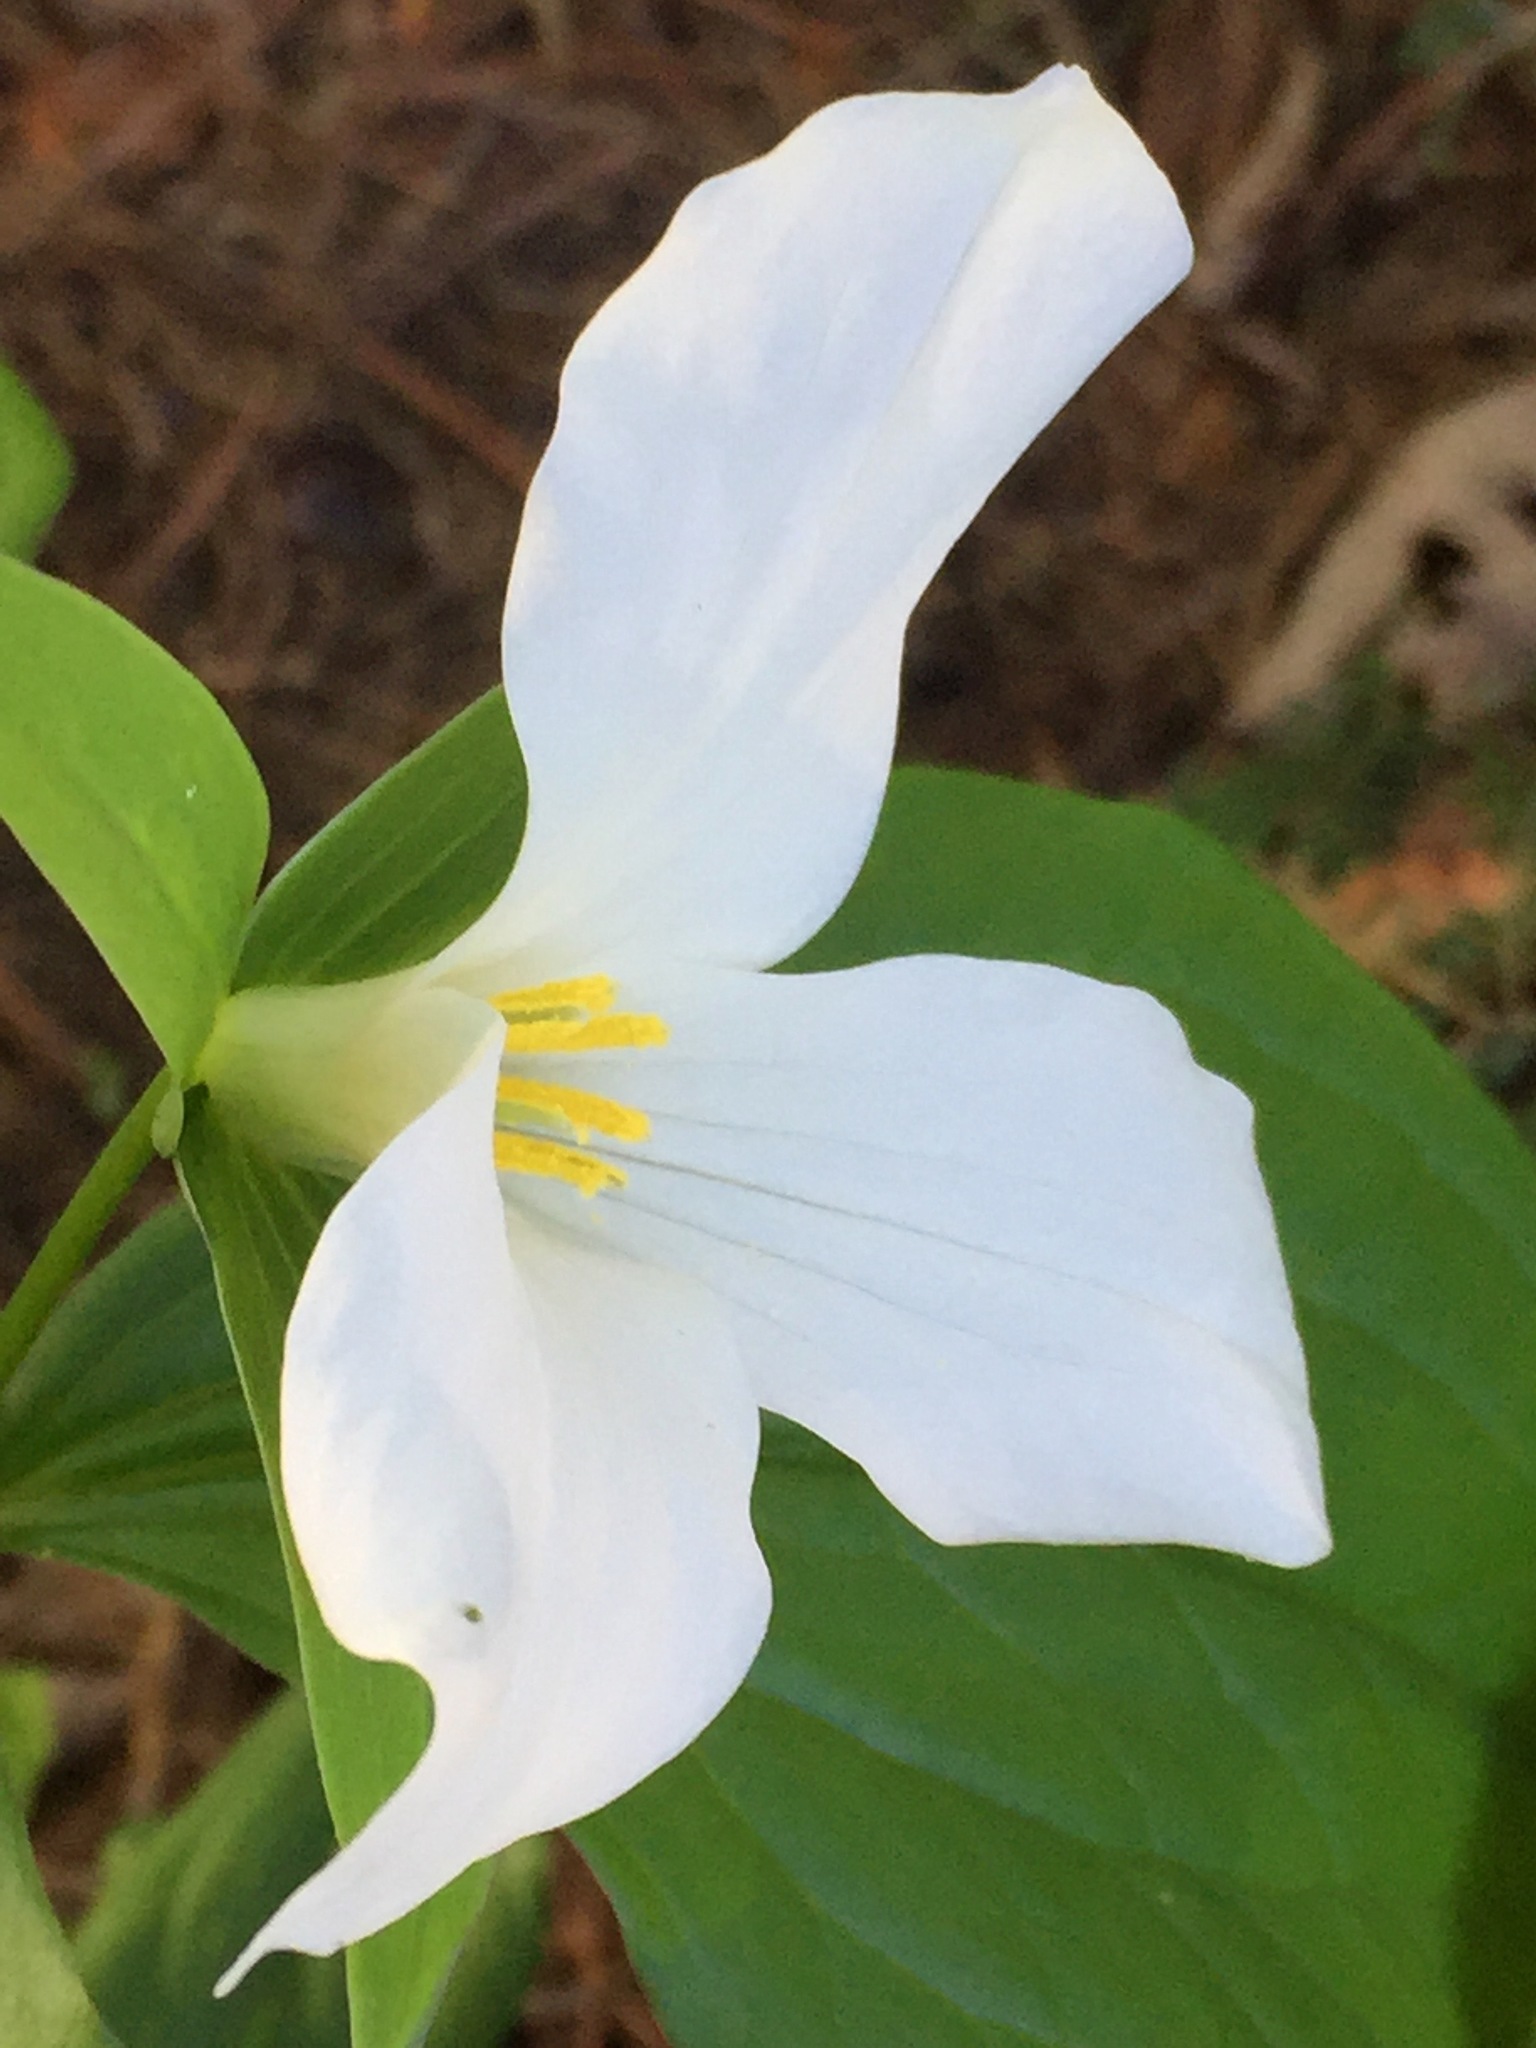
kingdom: Plantae
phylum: Tracheophyta
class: Liliopsida
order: Liliales
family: Melanthiaceae
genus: Trillium
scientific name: Trillium grandiflorum
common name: Great white trillium
